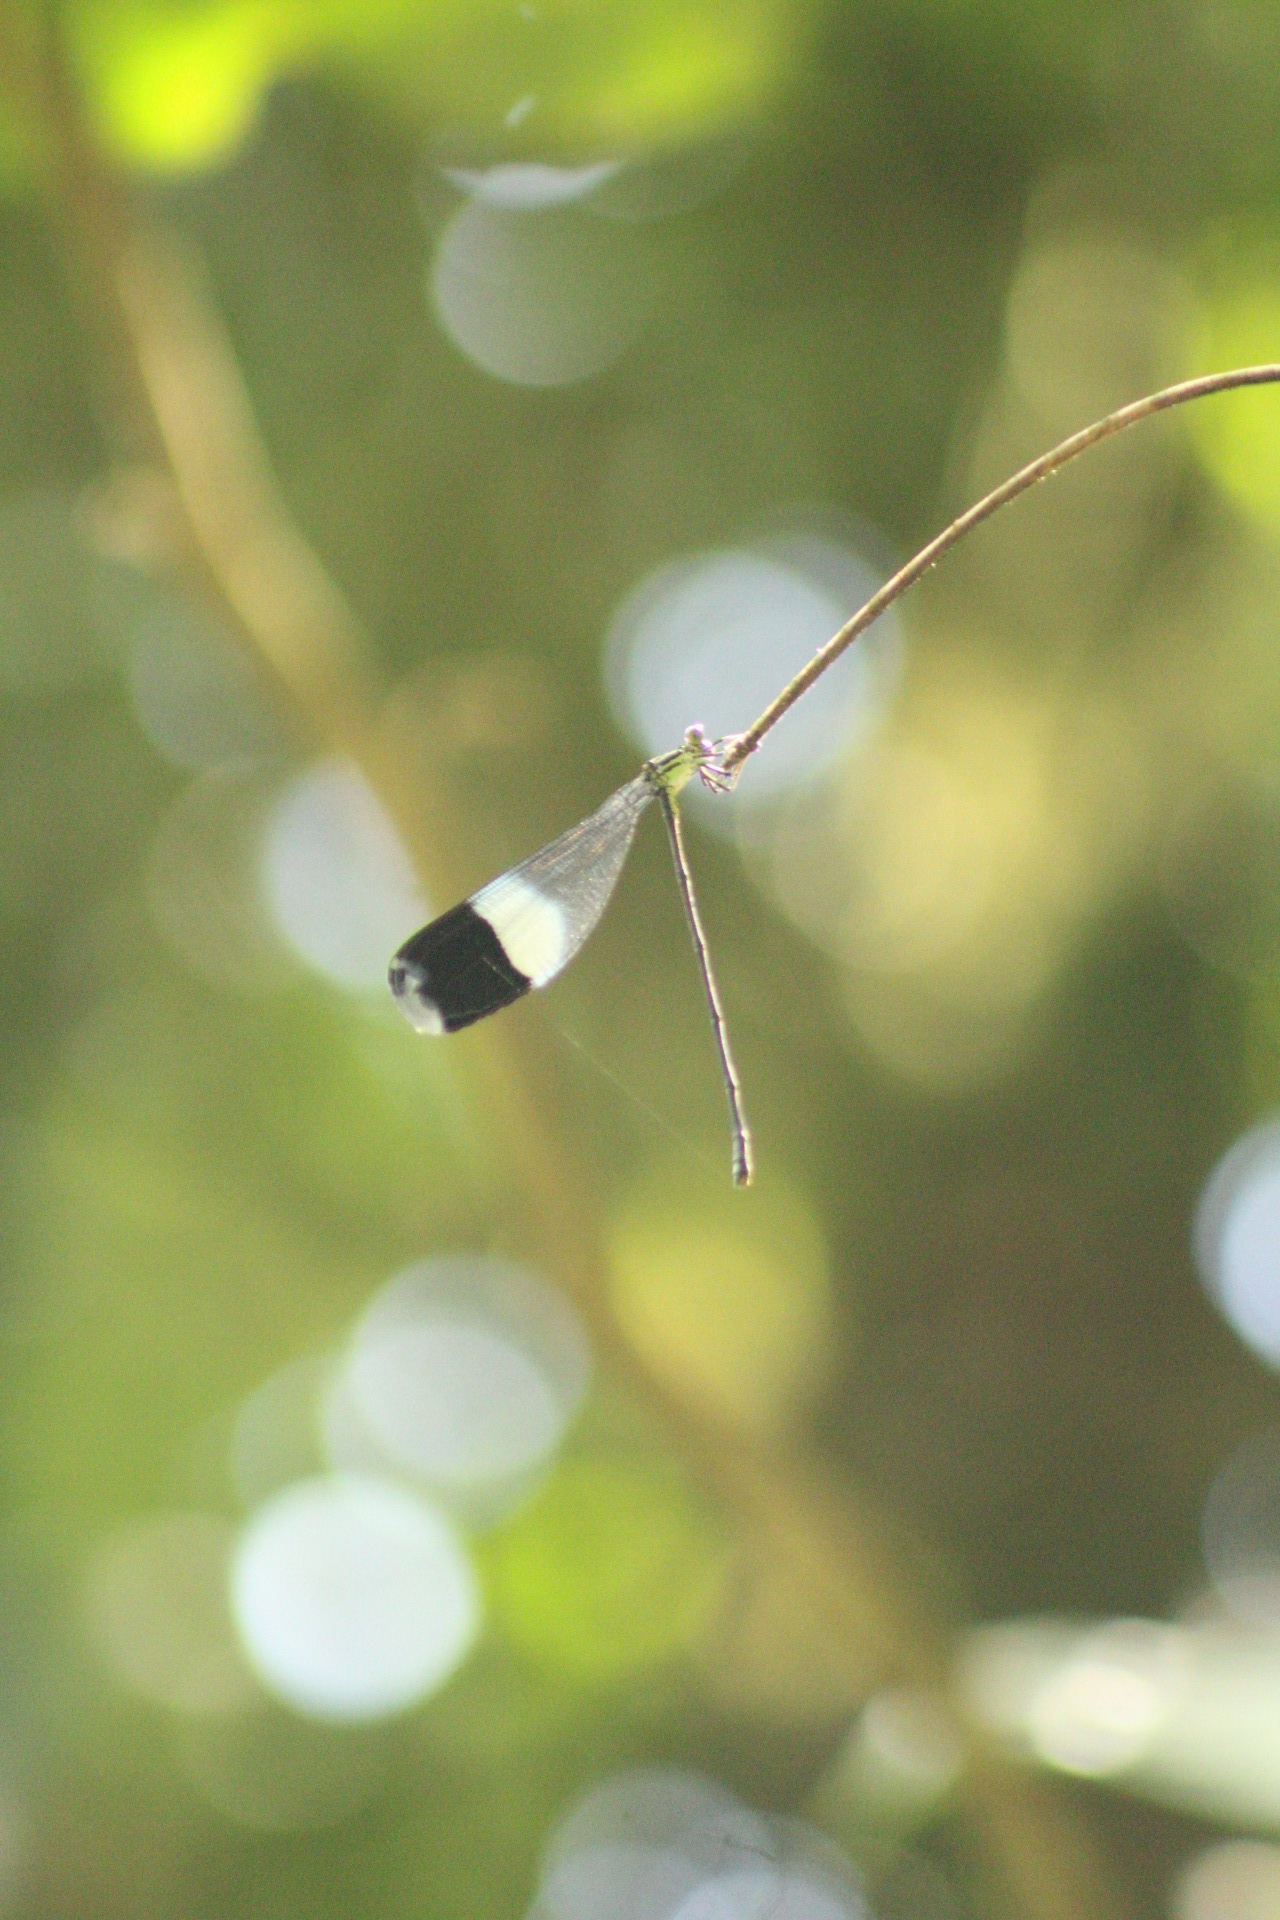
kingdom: Animalia
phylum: Arthropoda
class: Insecta
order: Odonata
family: Coenagrionidae
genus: Megaloprepus
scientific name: Megaloprepus caerulatus
